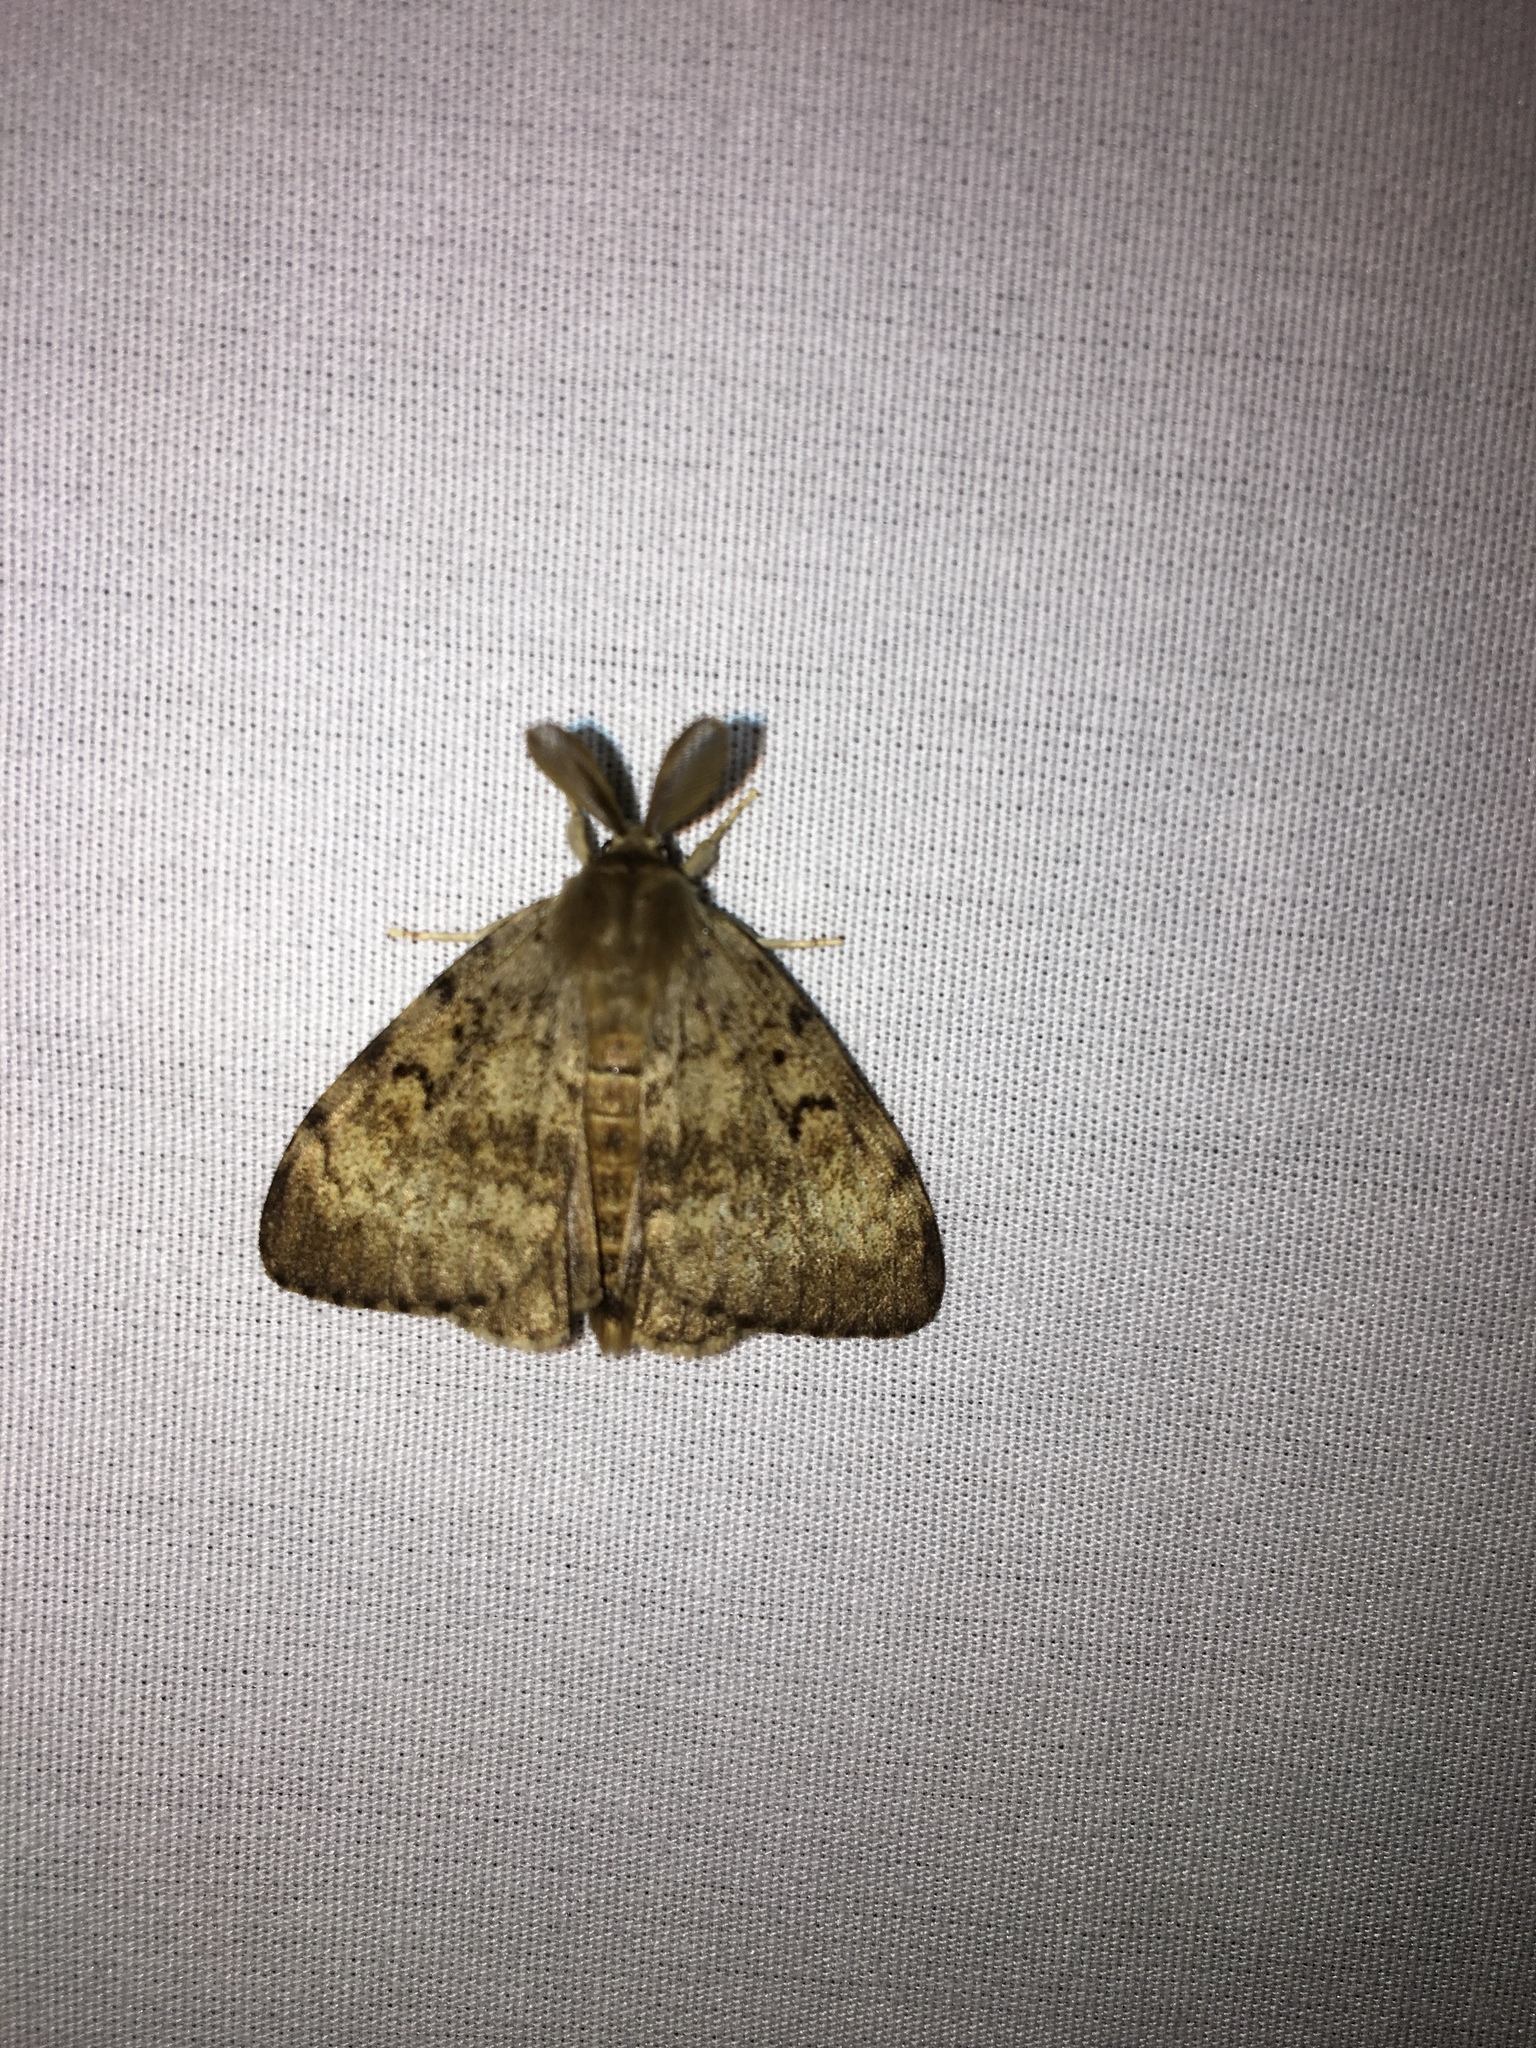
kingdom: Animalia
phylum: Arthropoda
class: Insecta
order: Lepidoptera
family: Erebidae
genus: Lymantria
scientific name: Lymantria dispar
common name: Gypsy moth
